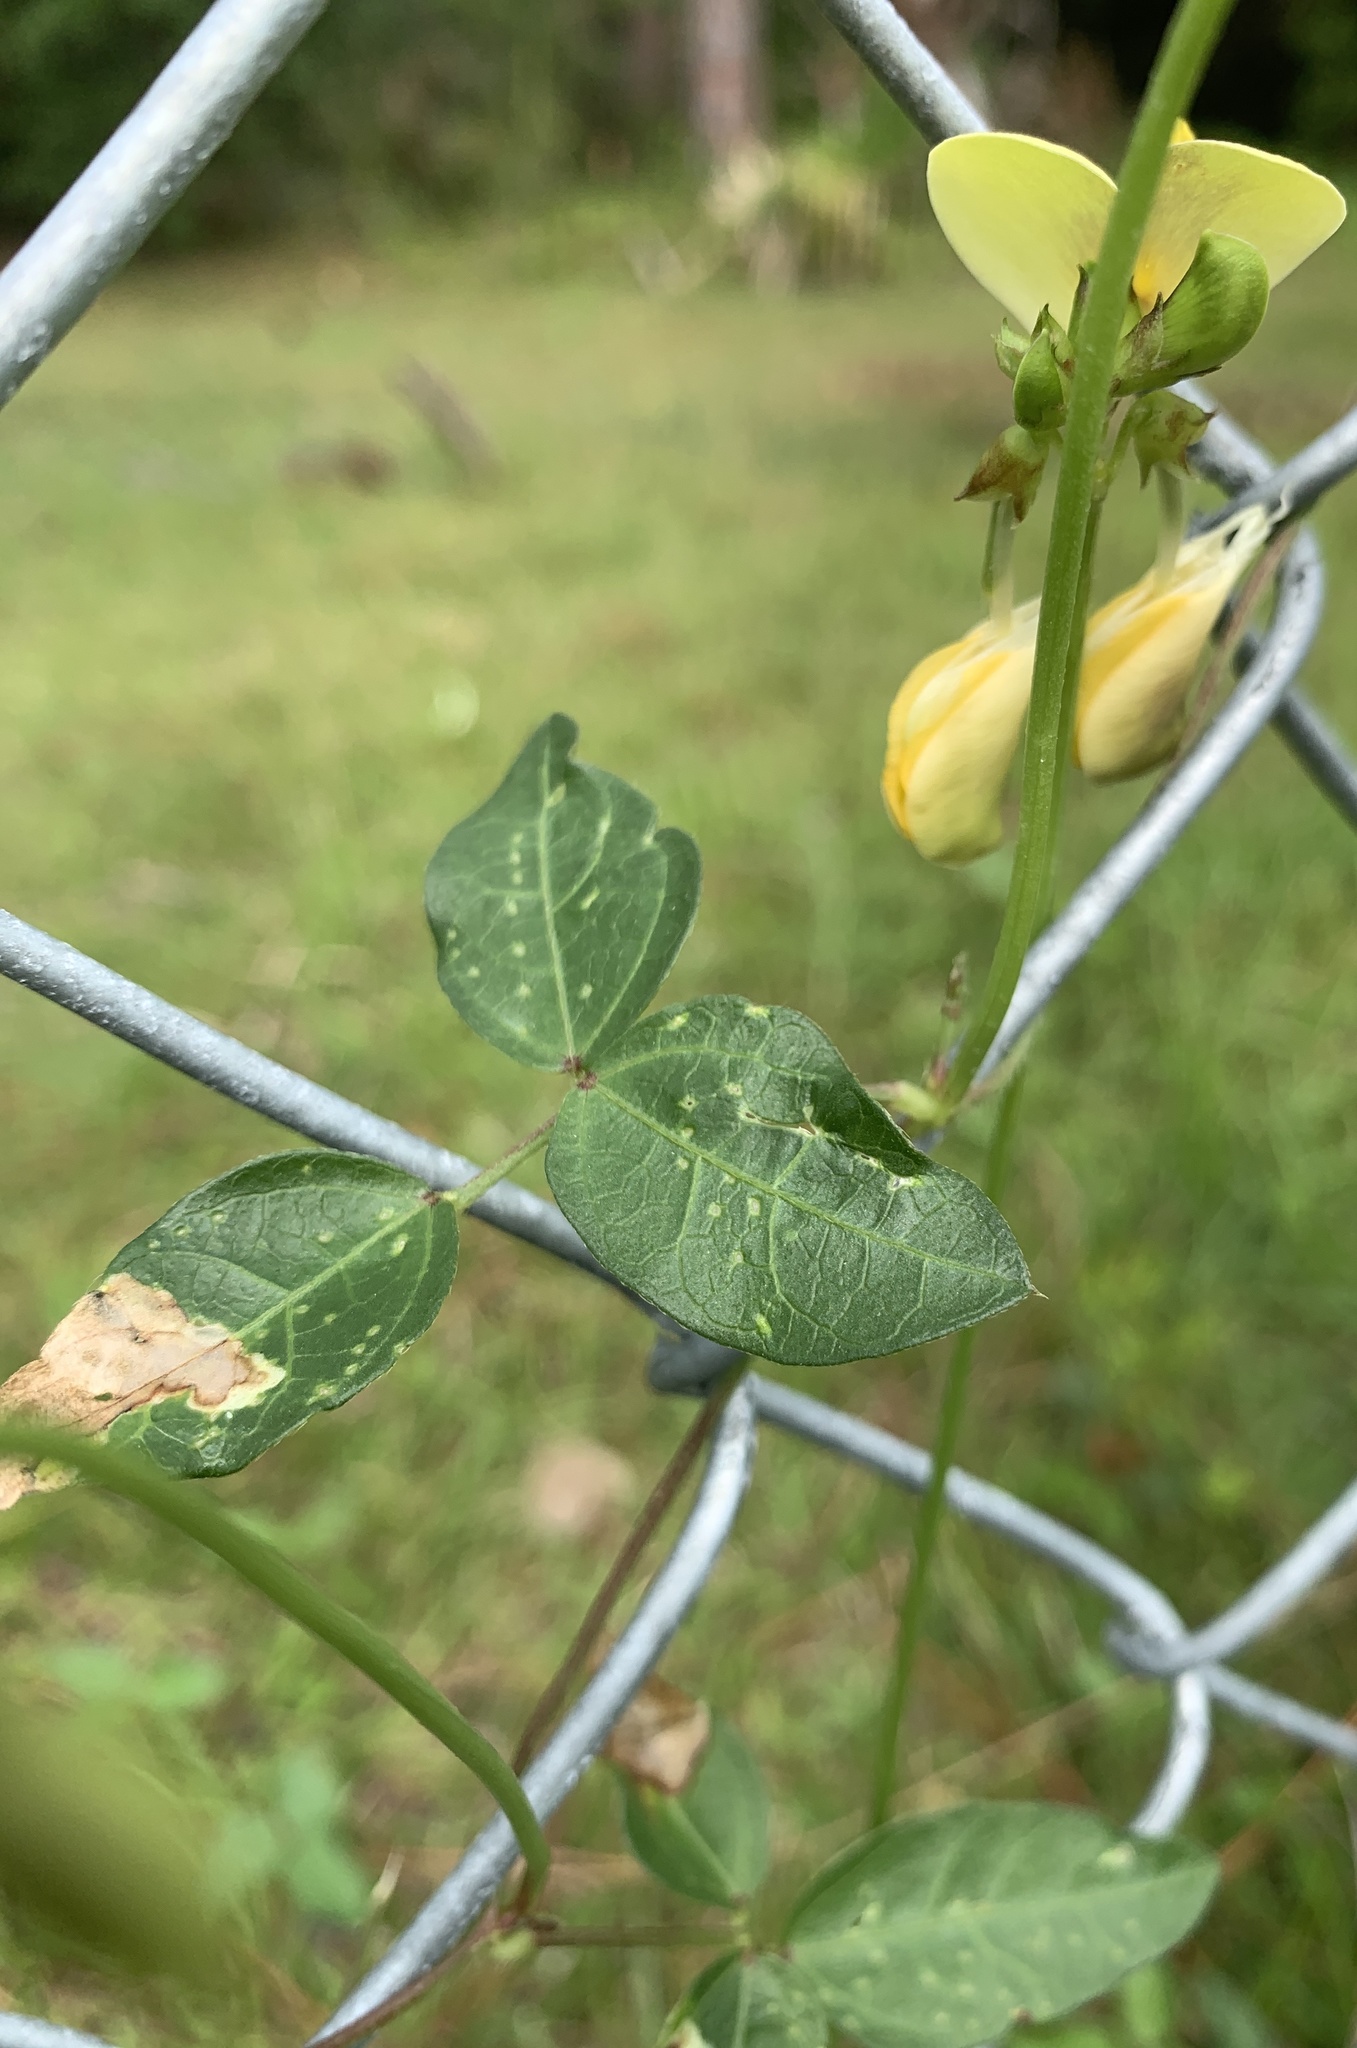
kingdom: Plantae
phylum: Tracheophyta
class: Magnoliopsida
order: Fabales
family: Fabaceae
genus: Vigna
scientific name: Vigna luteola
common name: Hairypod cowpea
